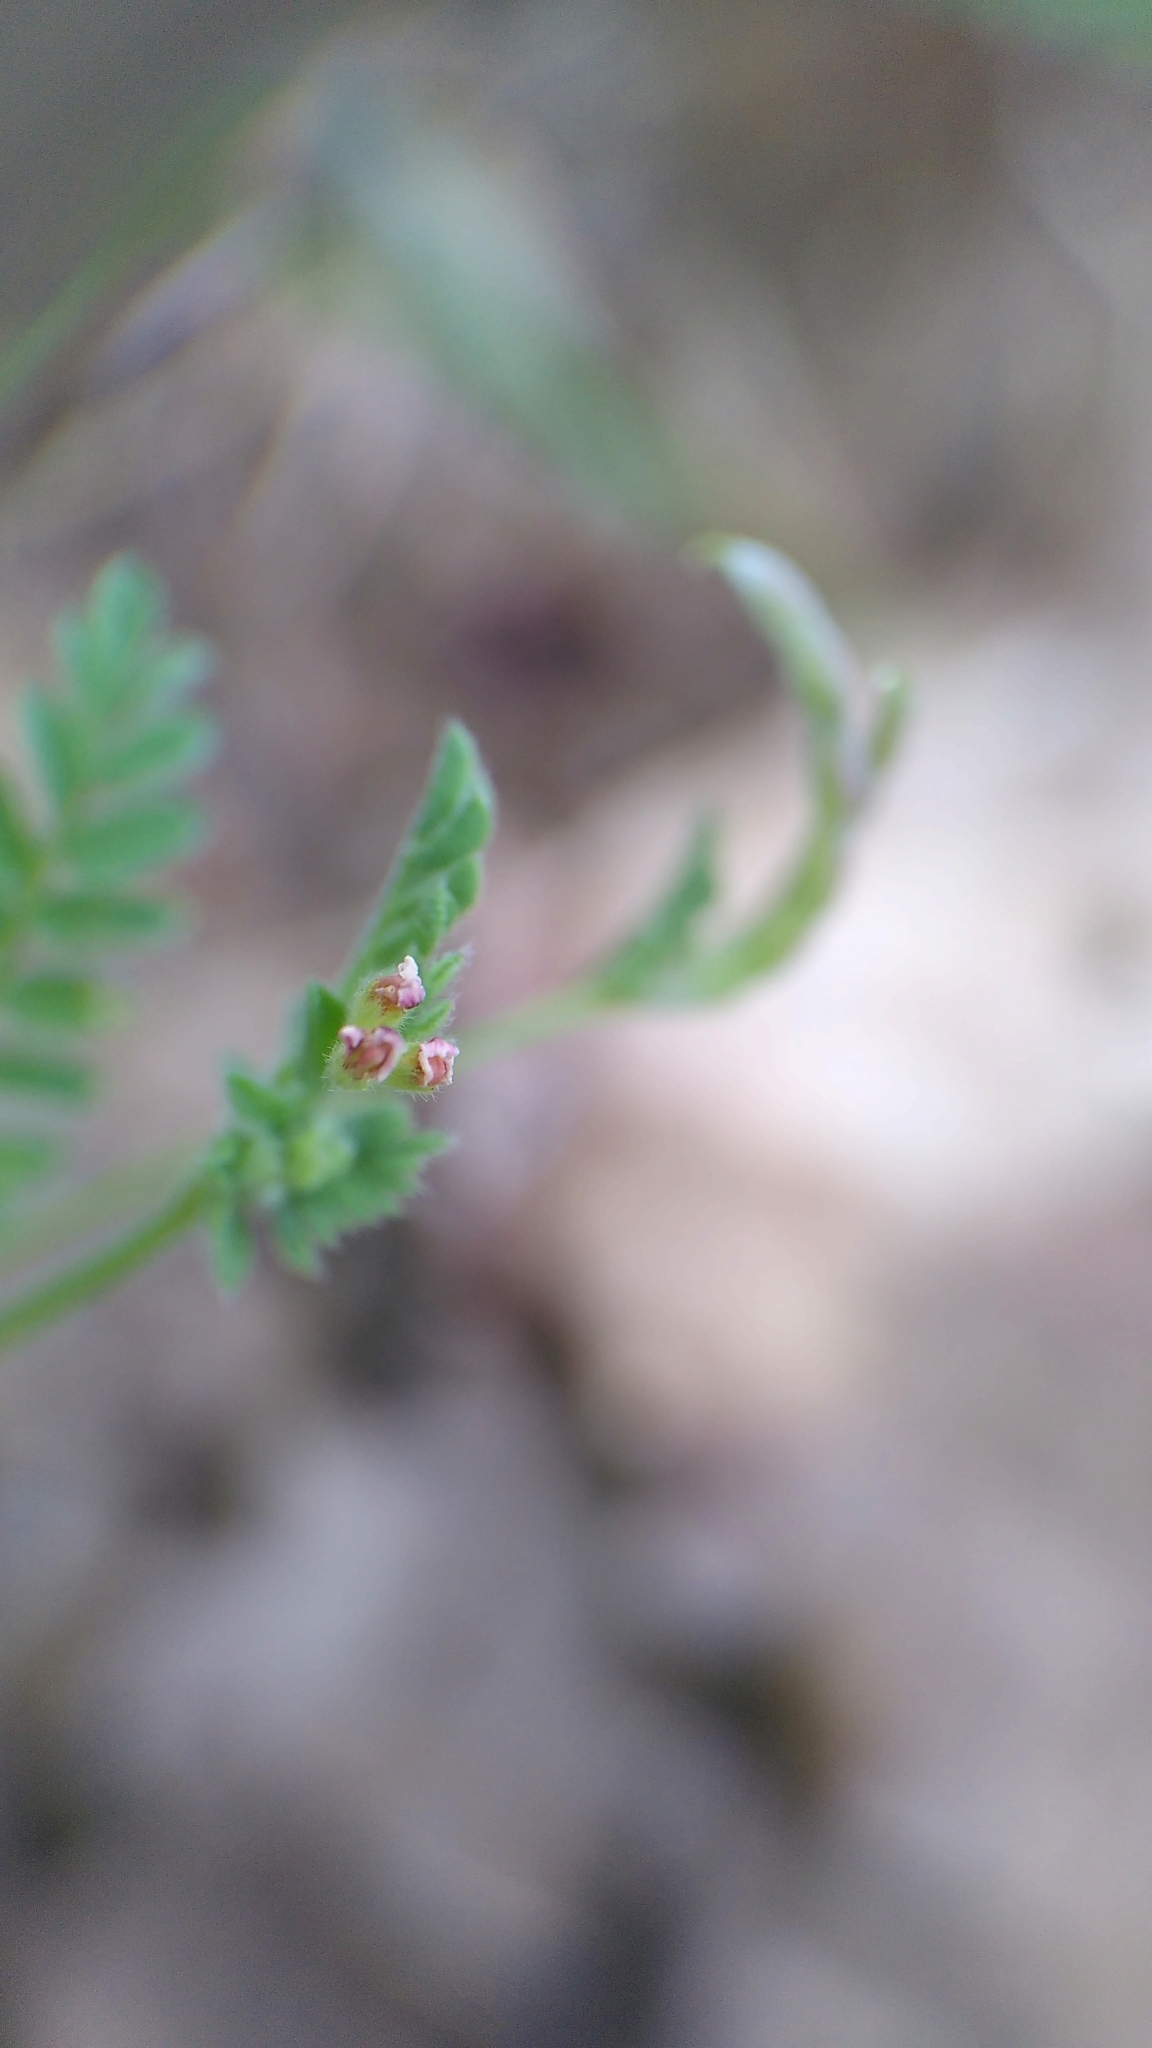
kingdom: Plantae
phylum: Tracheophyta
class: Magnoliopsida
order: Fabales
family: Fabaceae
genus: Ornithopus
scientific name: Ornithopus perpusillus
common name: Bird's-foot
